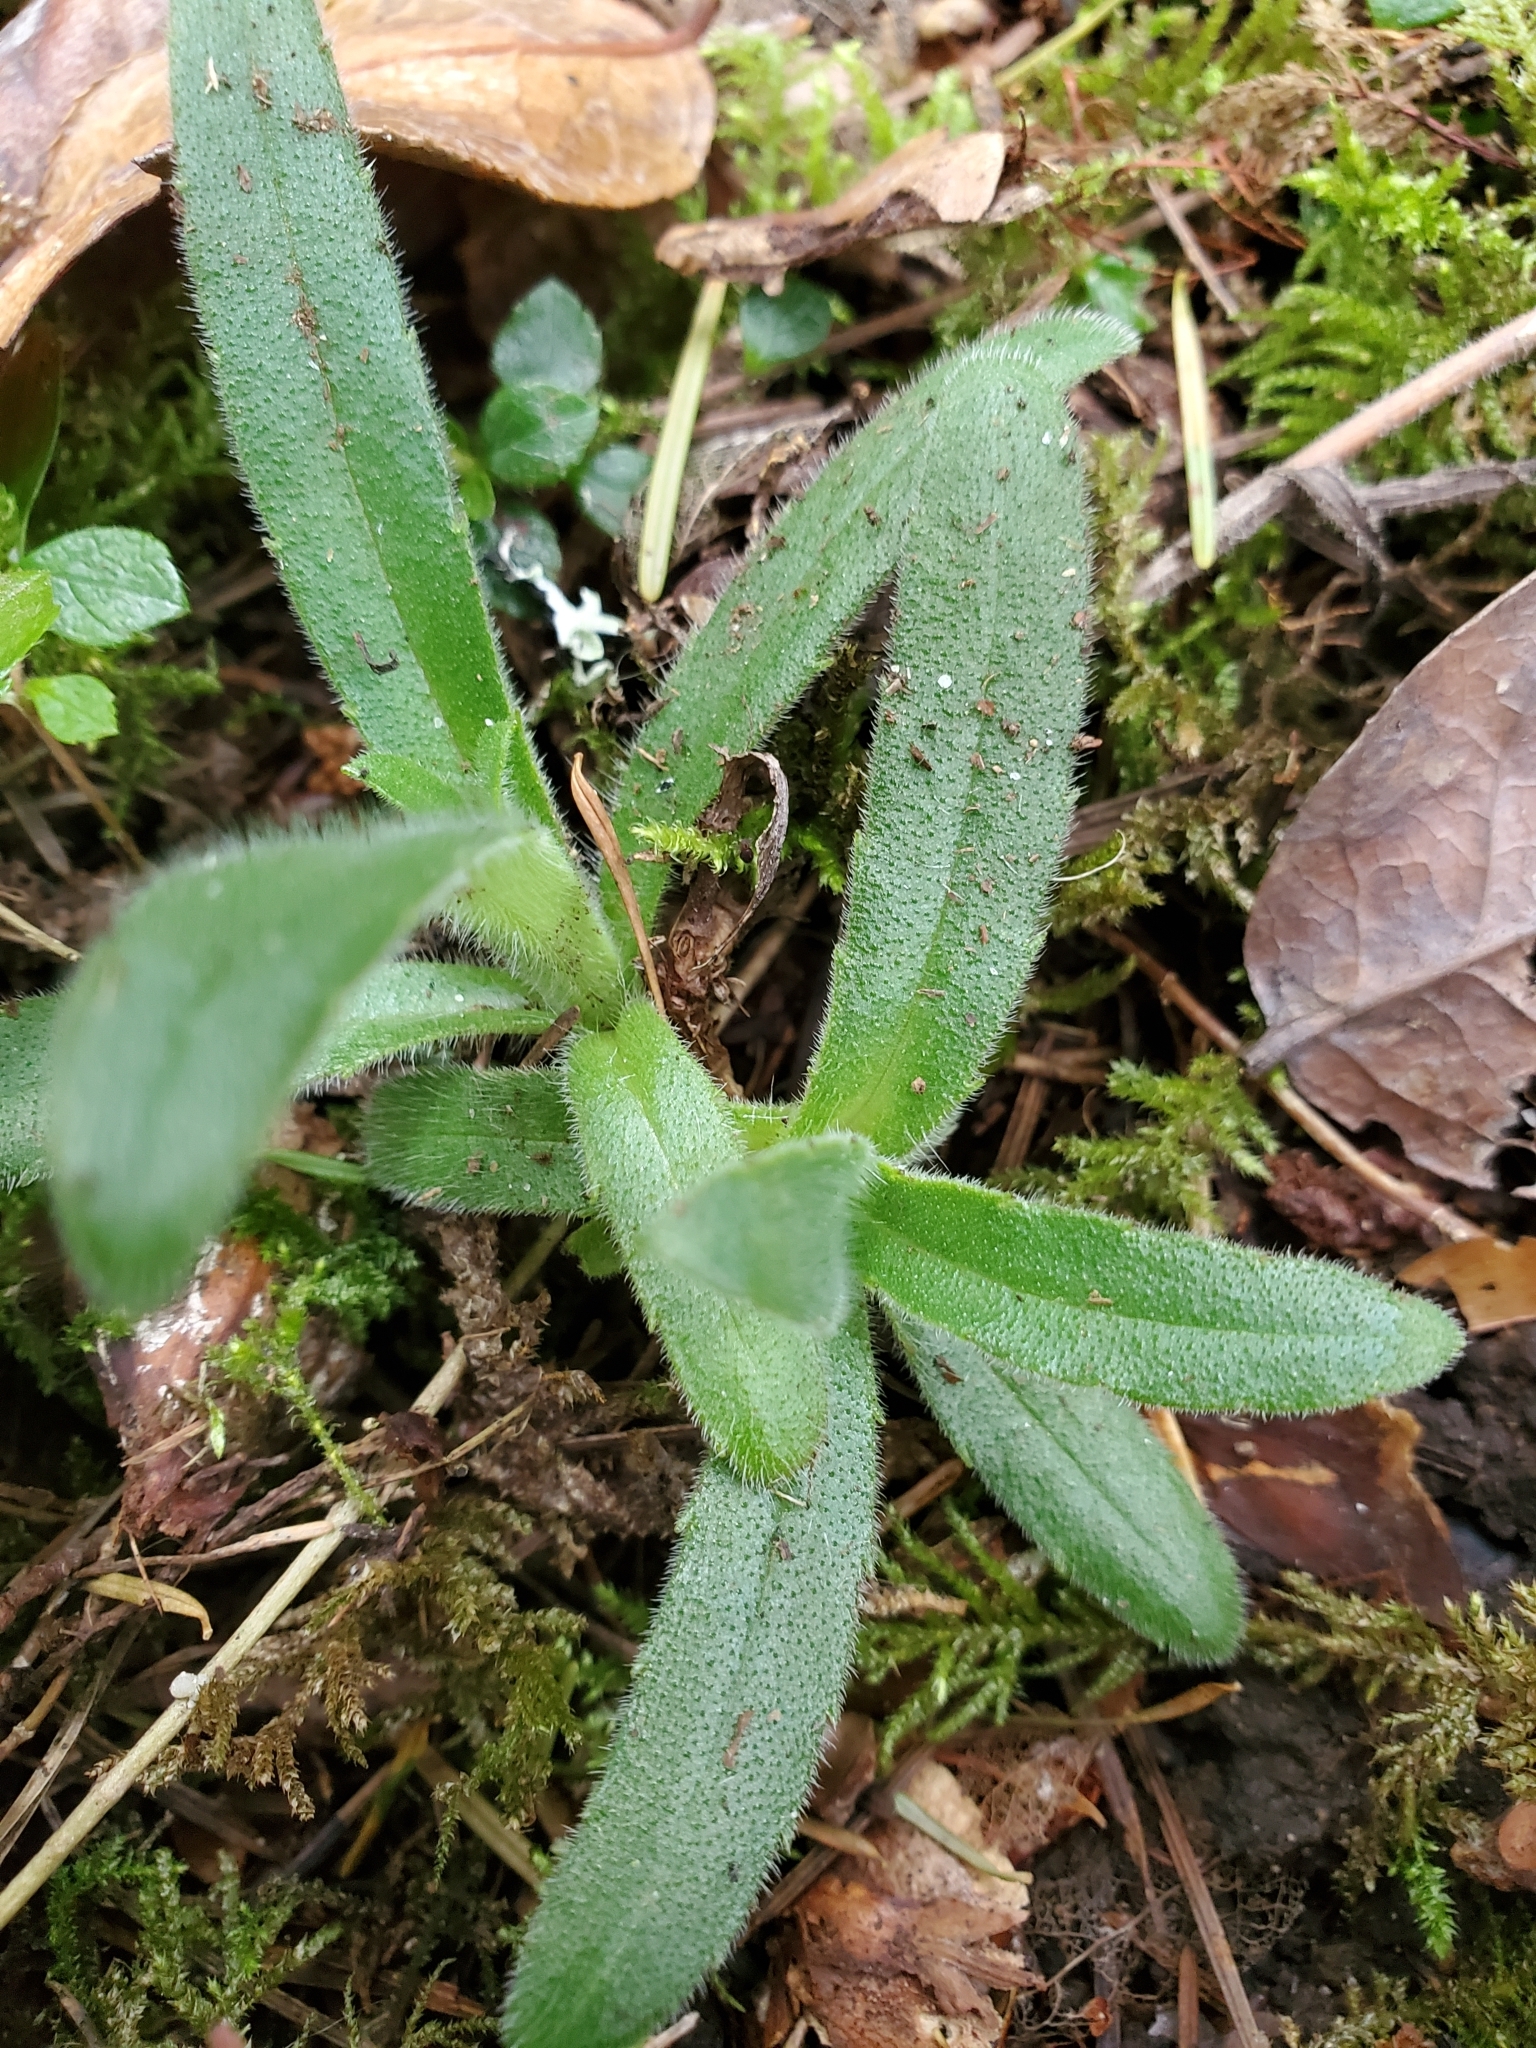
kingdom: Plantae
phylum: Tracheophyta
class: Magnoliopsida
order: Asterales
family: Asteraceae
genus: Anisocarpus
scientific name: Anisocarpus madioides
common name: Woodland madia
